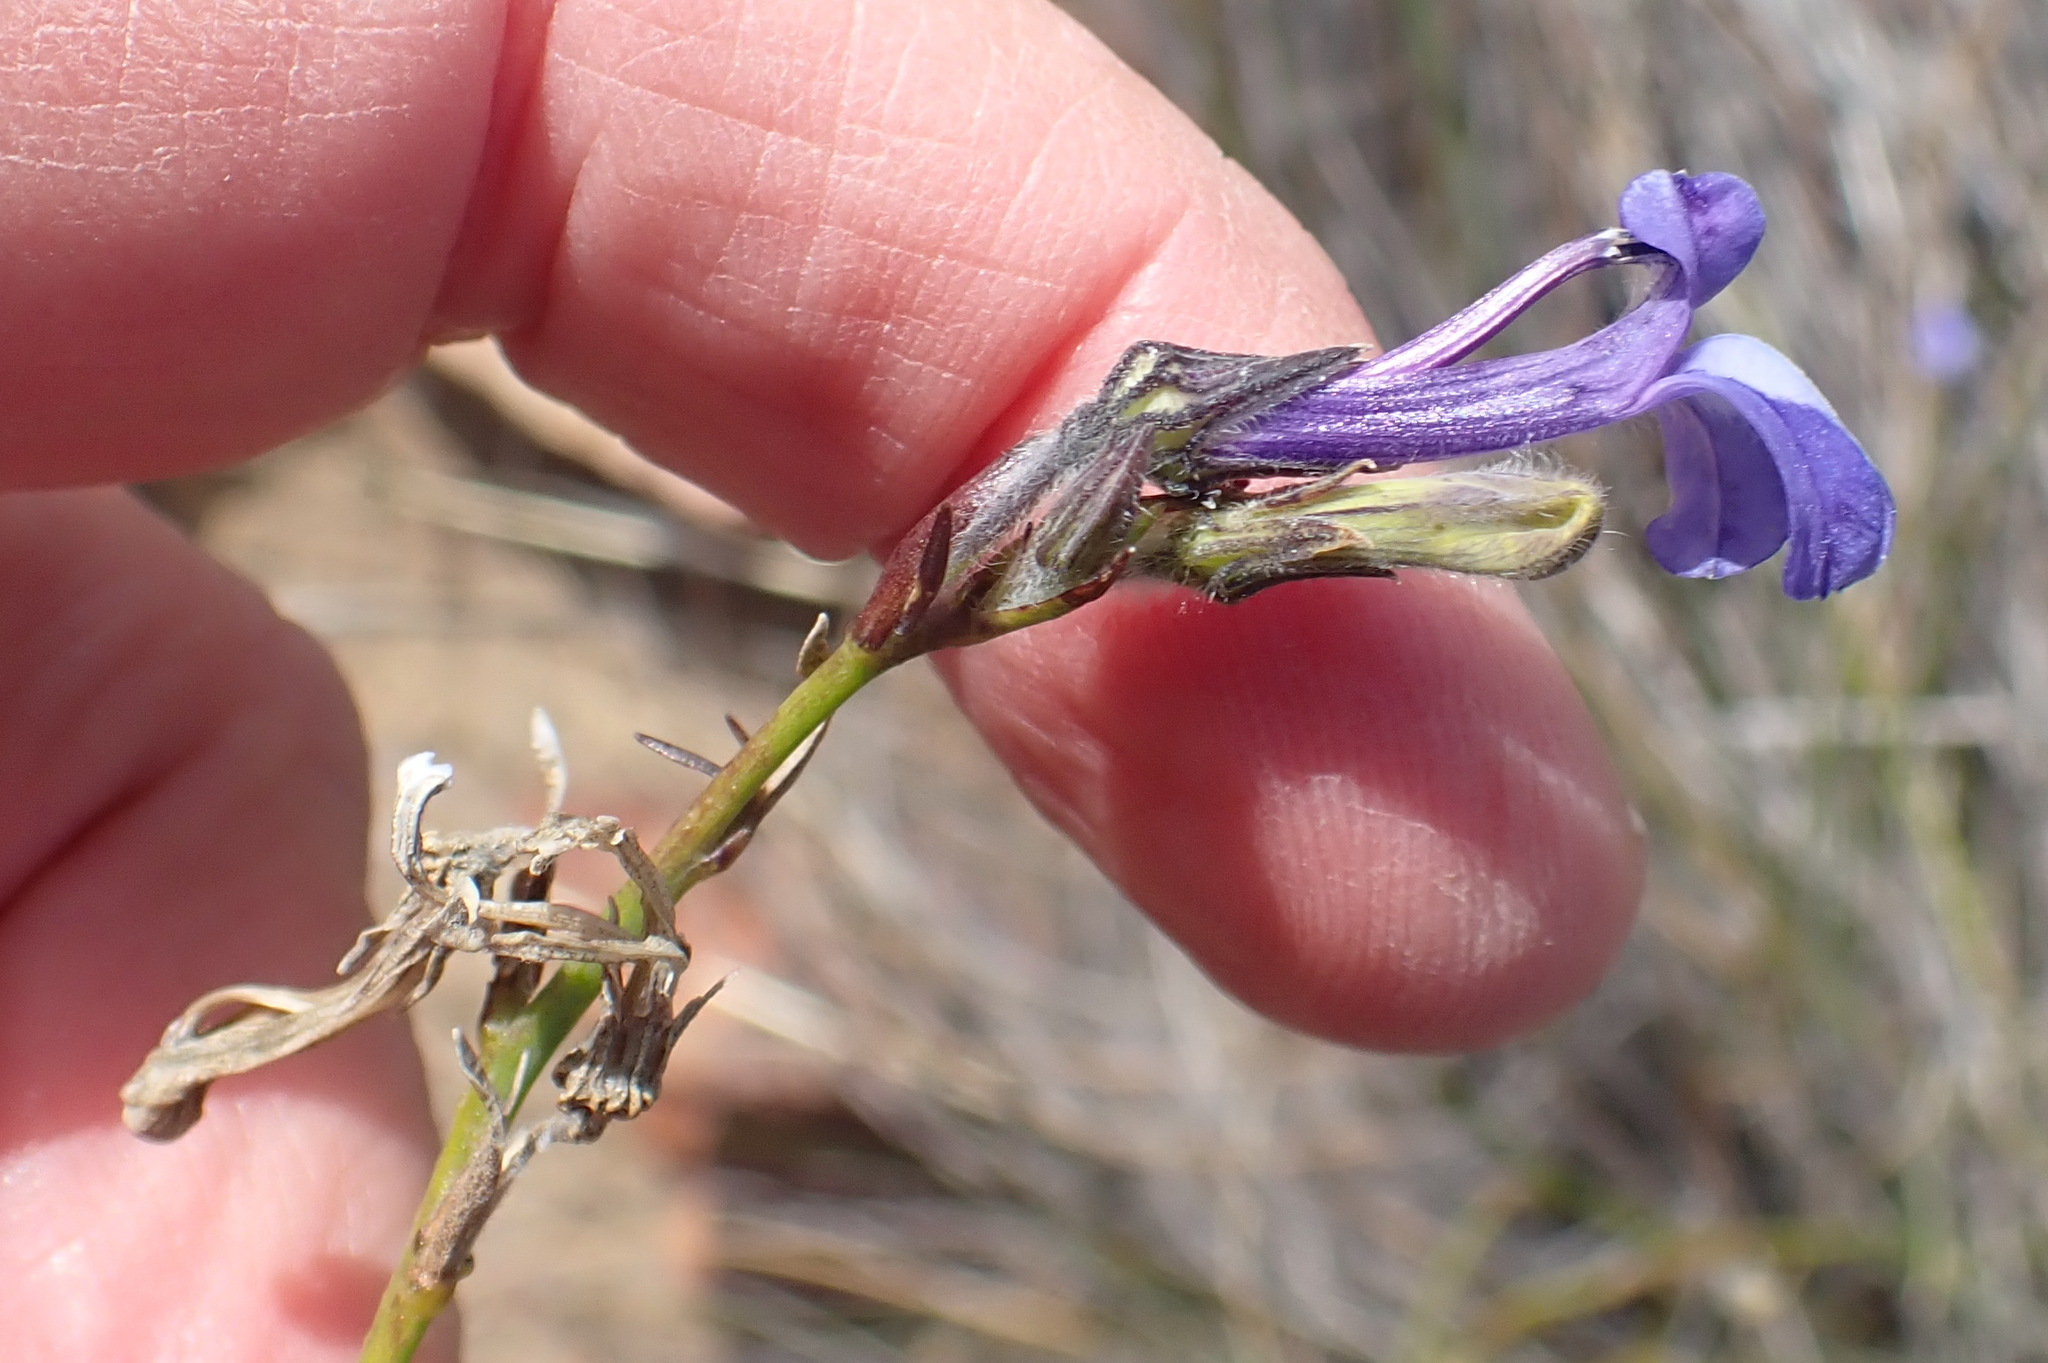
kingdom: Plantae
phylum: Tracheophyta
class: Magnoliopsida
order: Asterales
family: Campanulaceae
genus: Lobelia
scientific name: Lobelia linearis
